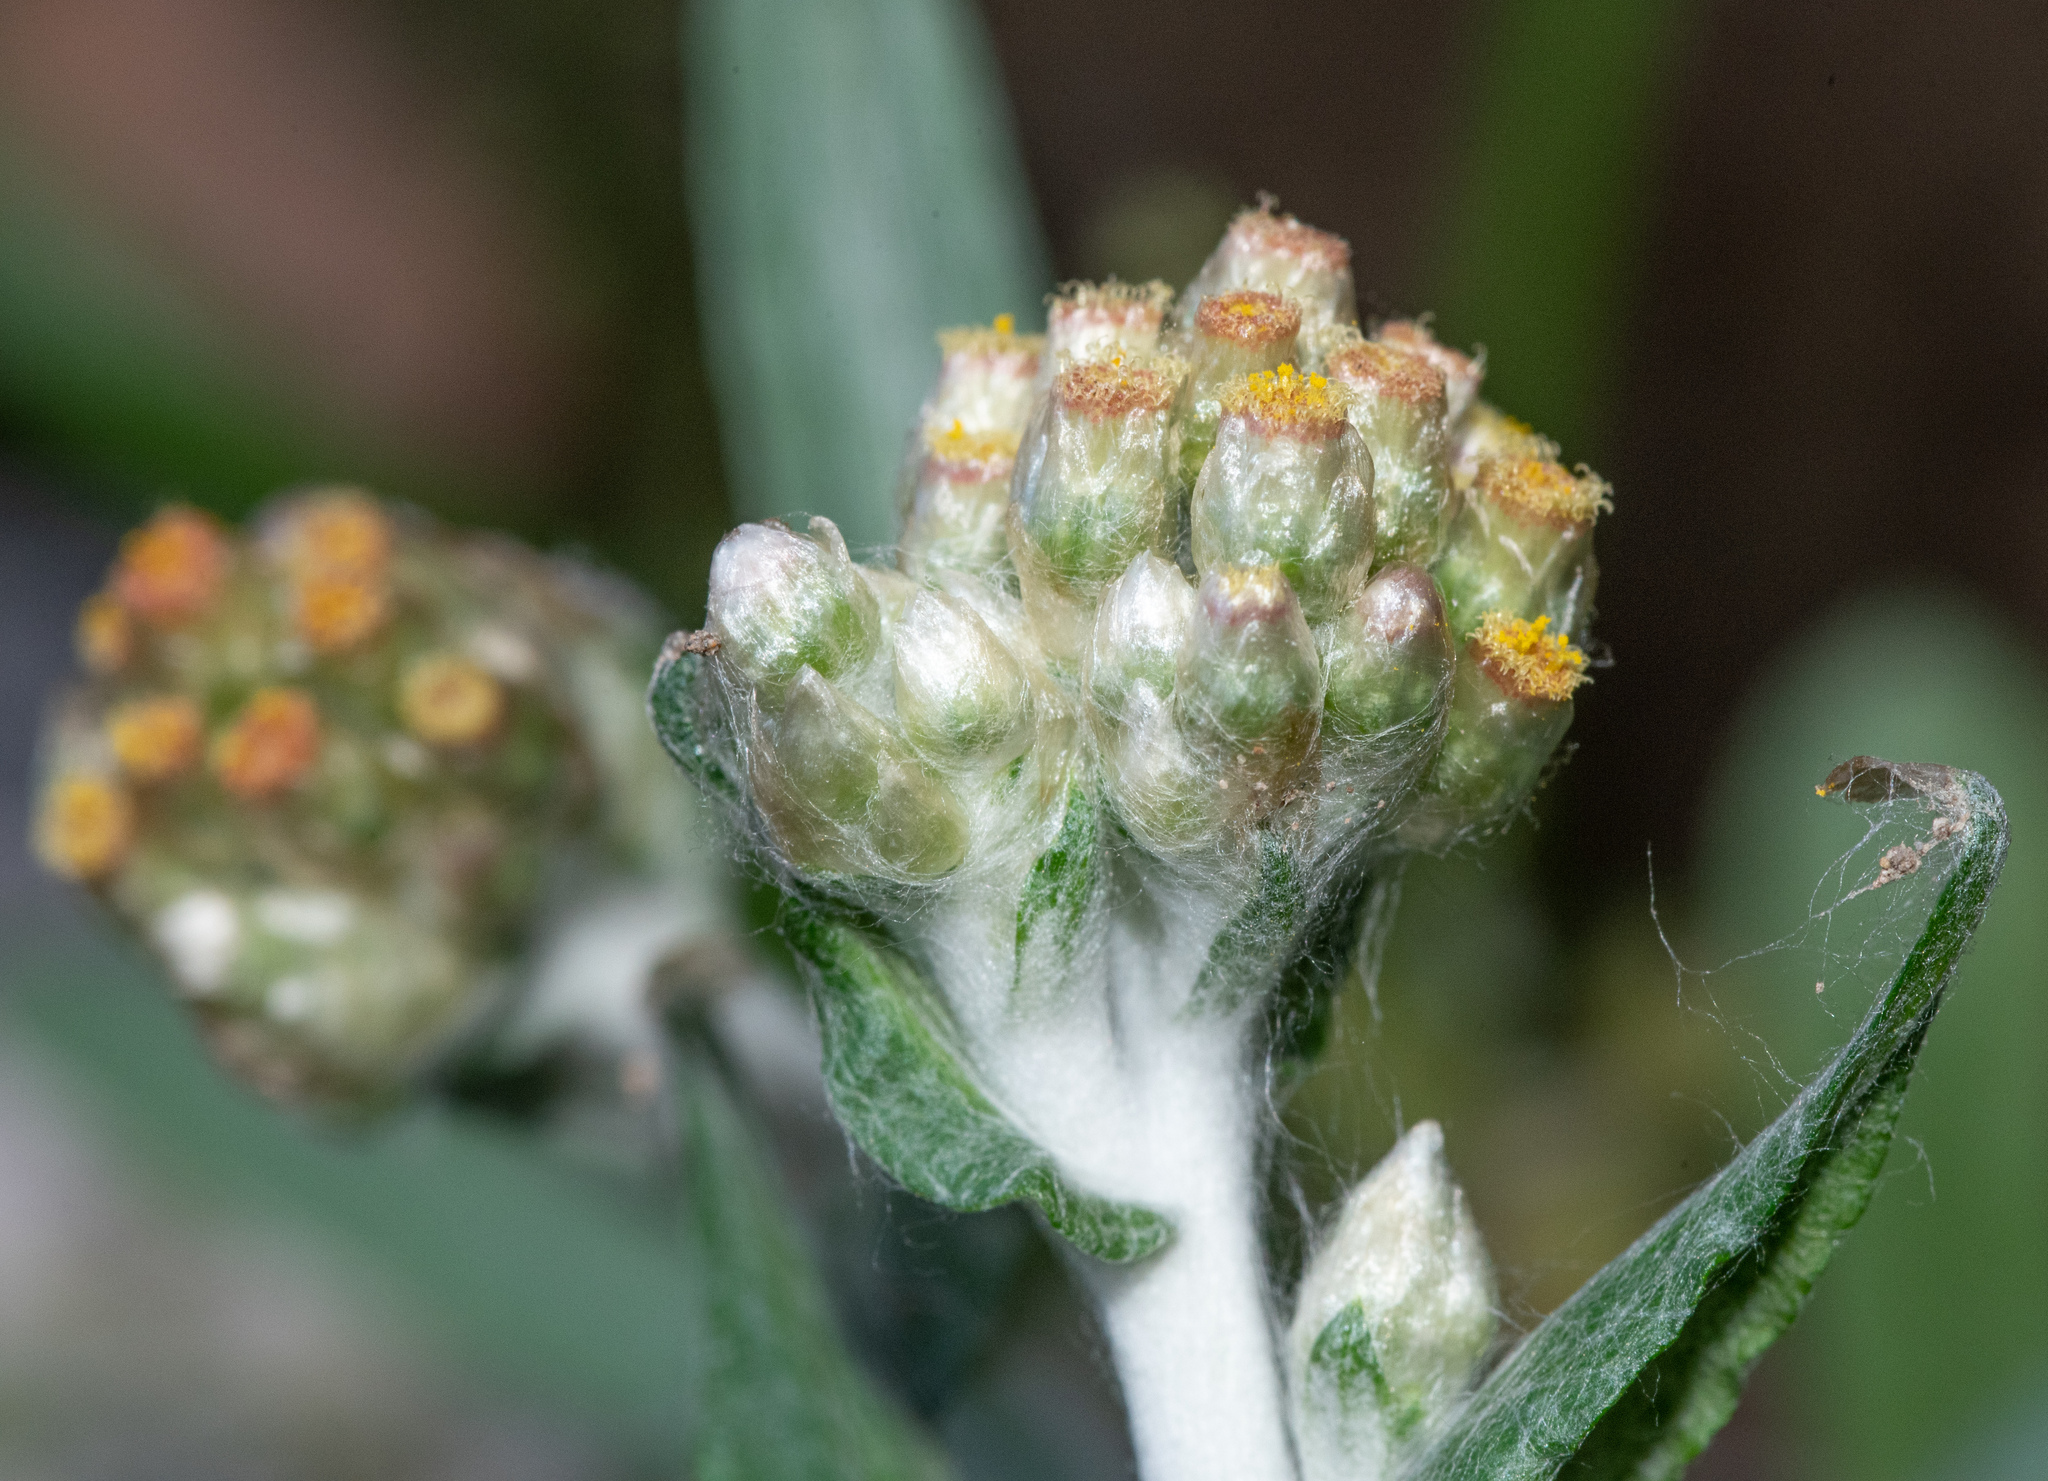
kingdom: Plantae
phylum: Tracheophyta
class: Magnoliopsida
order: Asterales
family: Asteraceae
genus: Helichrysum
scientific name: Helichrysum luteoalbum
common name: Daisy
